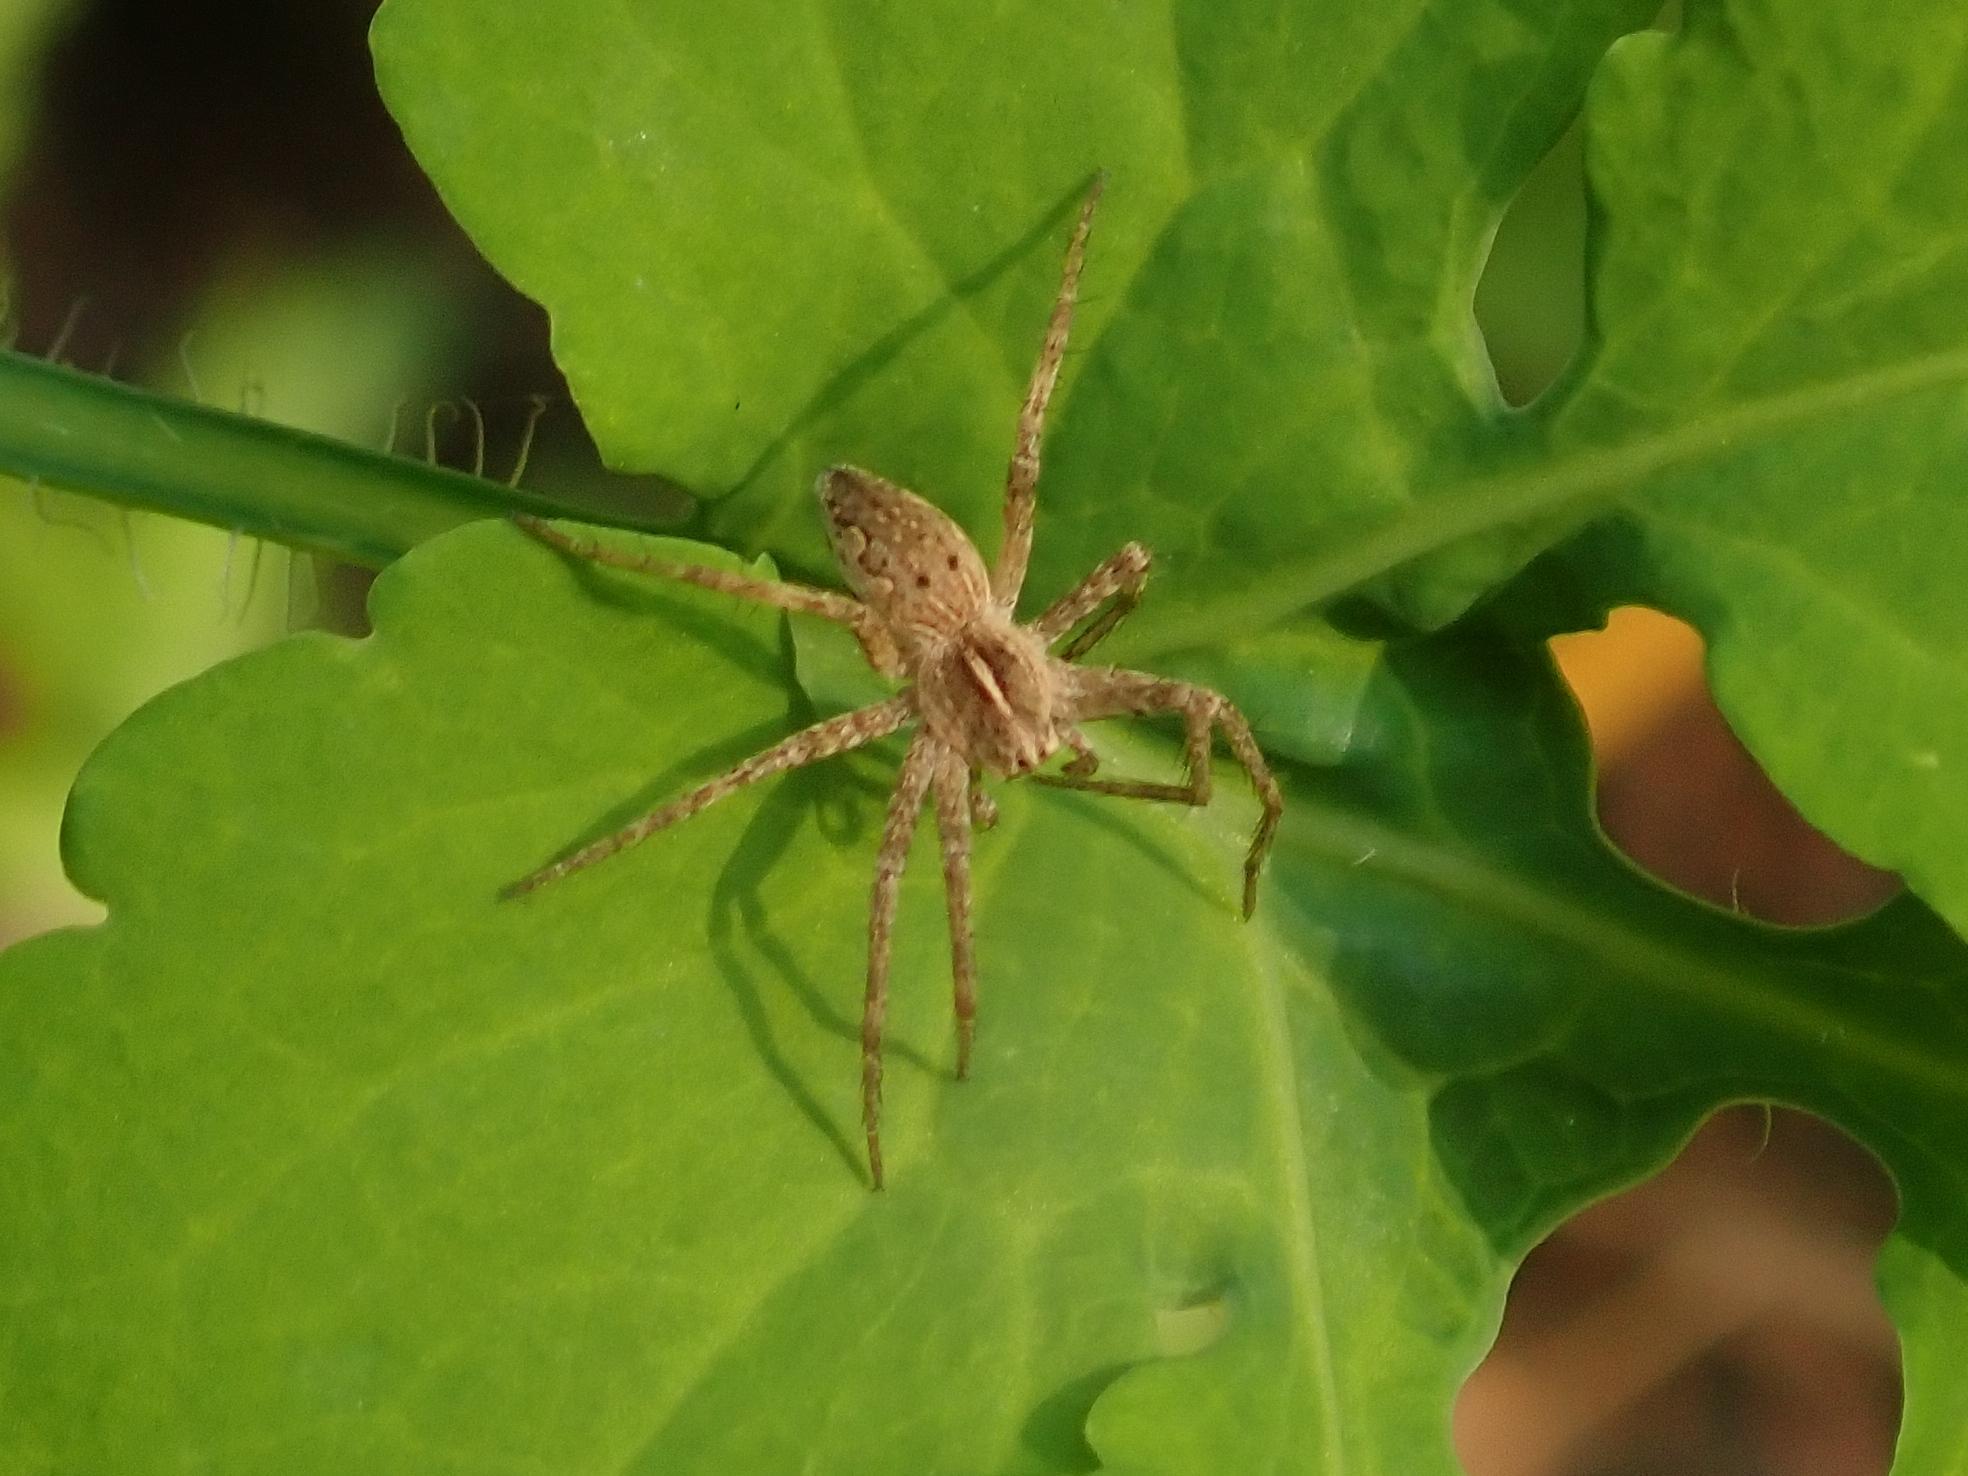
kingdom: Animalia
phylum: Arthropoda
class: Arachnida
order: Araneae
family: Pisauridae
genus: Pisaura
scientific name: Pisaura mirabilis
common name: Tent spider
